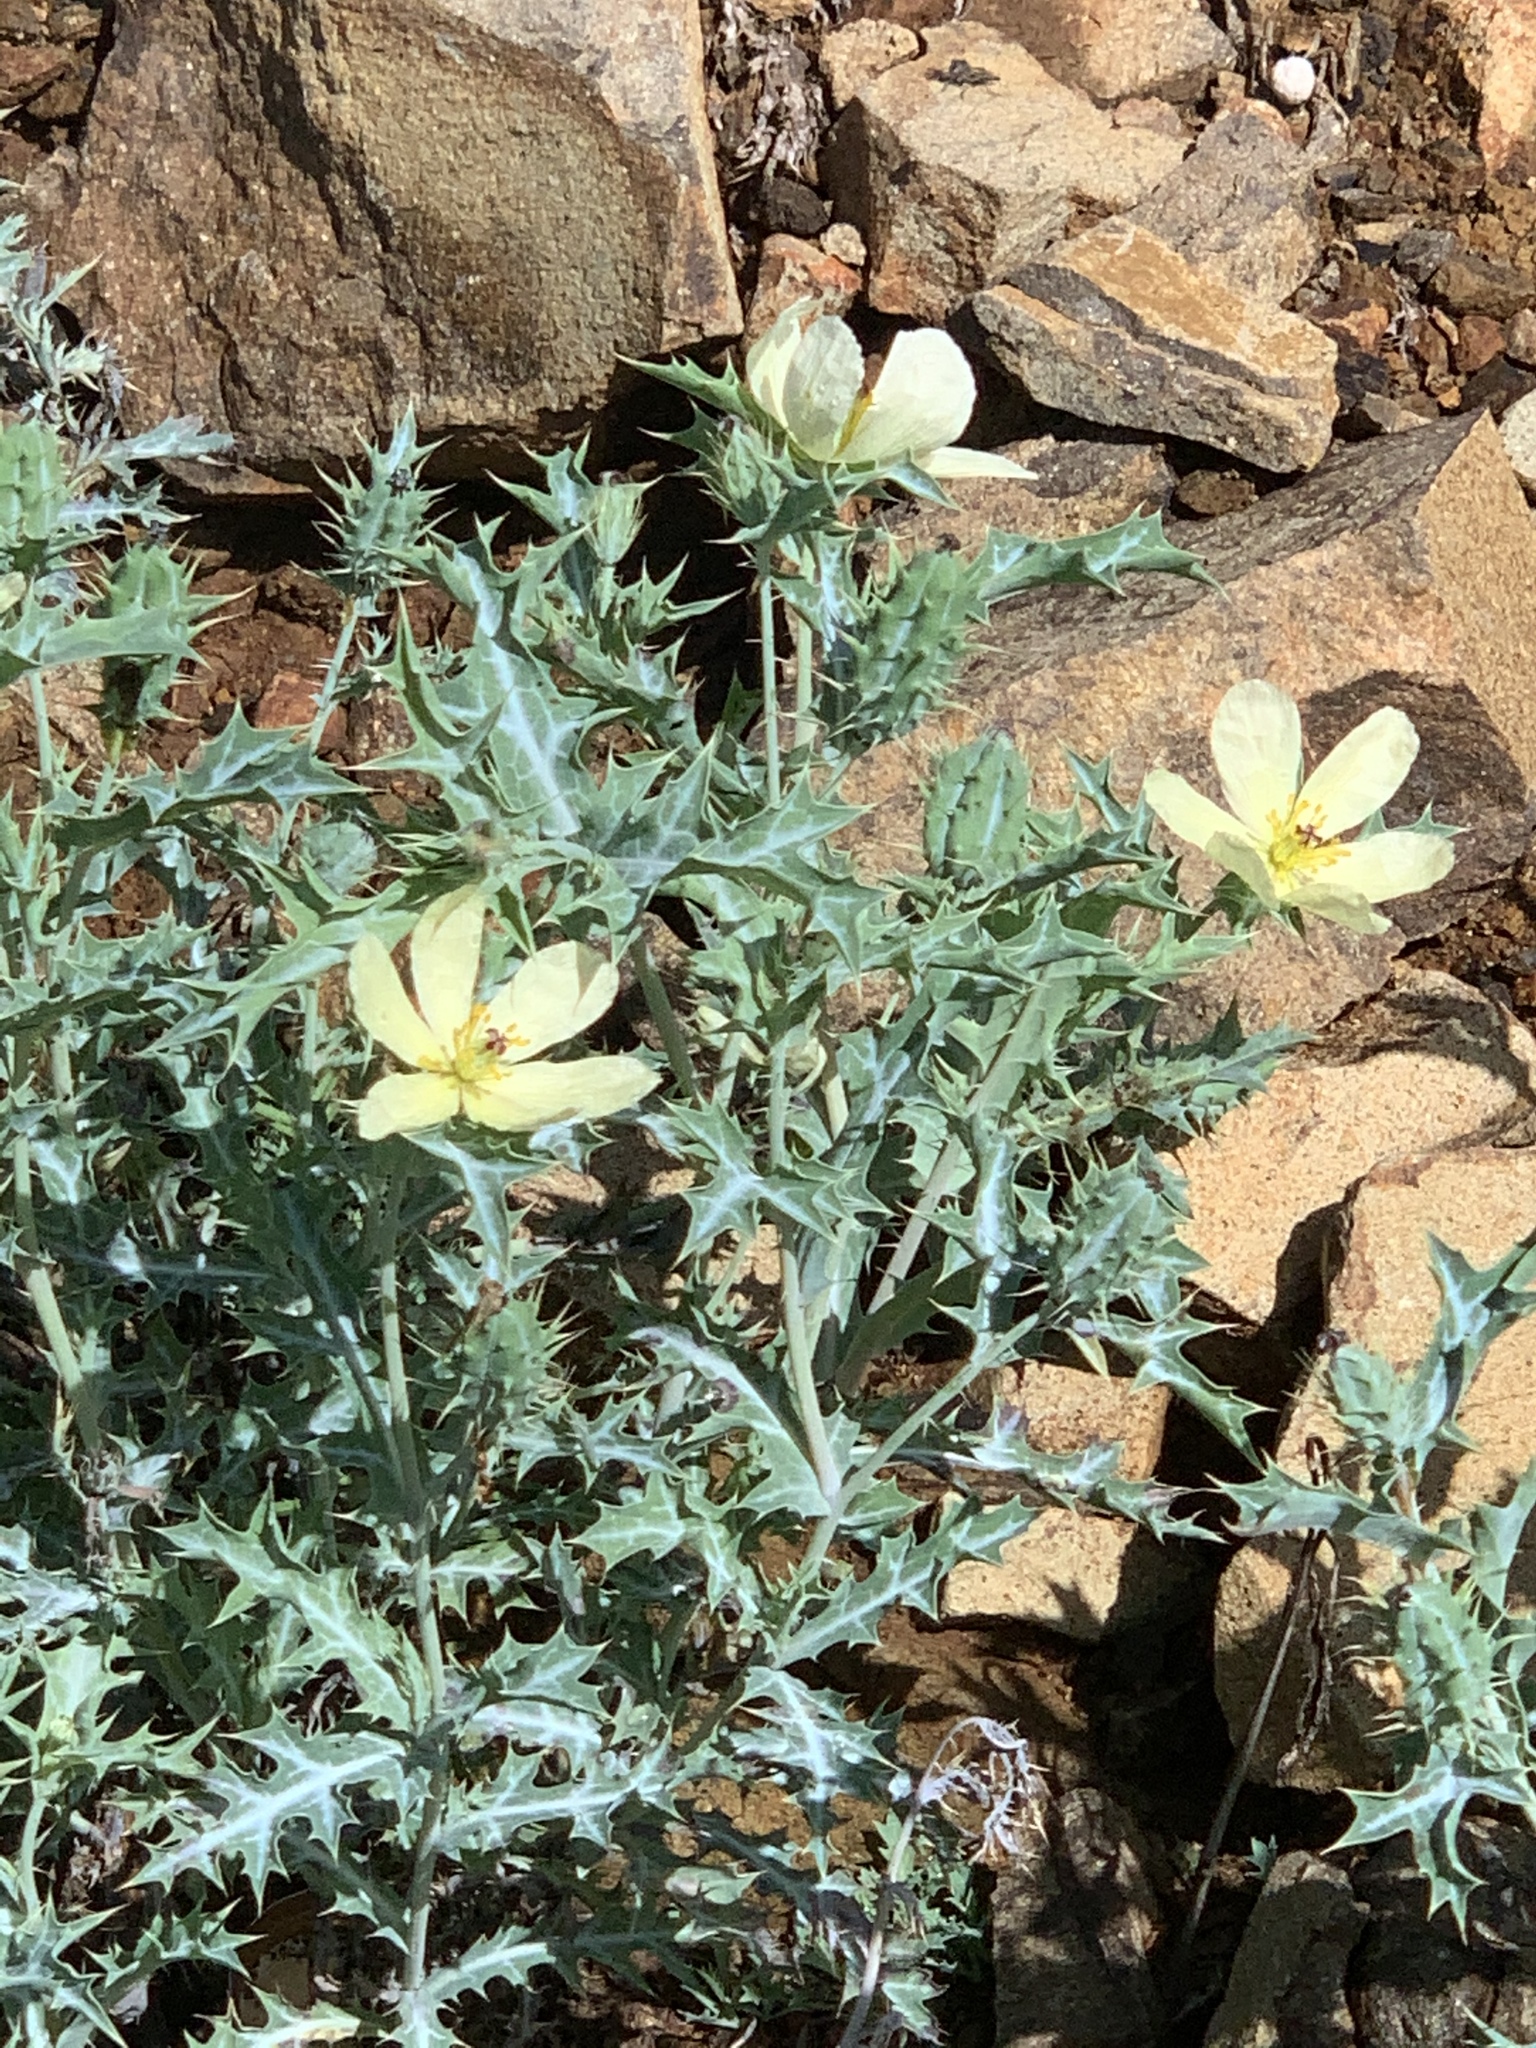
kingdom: Plantae
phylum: Tracheophyta
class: Magnoliopsida
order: Ranunculales
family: Papaveraceae
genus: Argemone
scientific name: Argemone ochroleuca
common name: White-flower mexican-poppy
